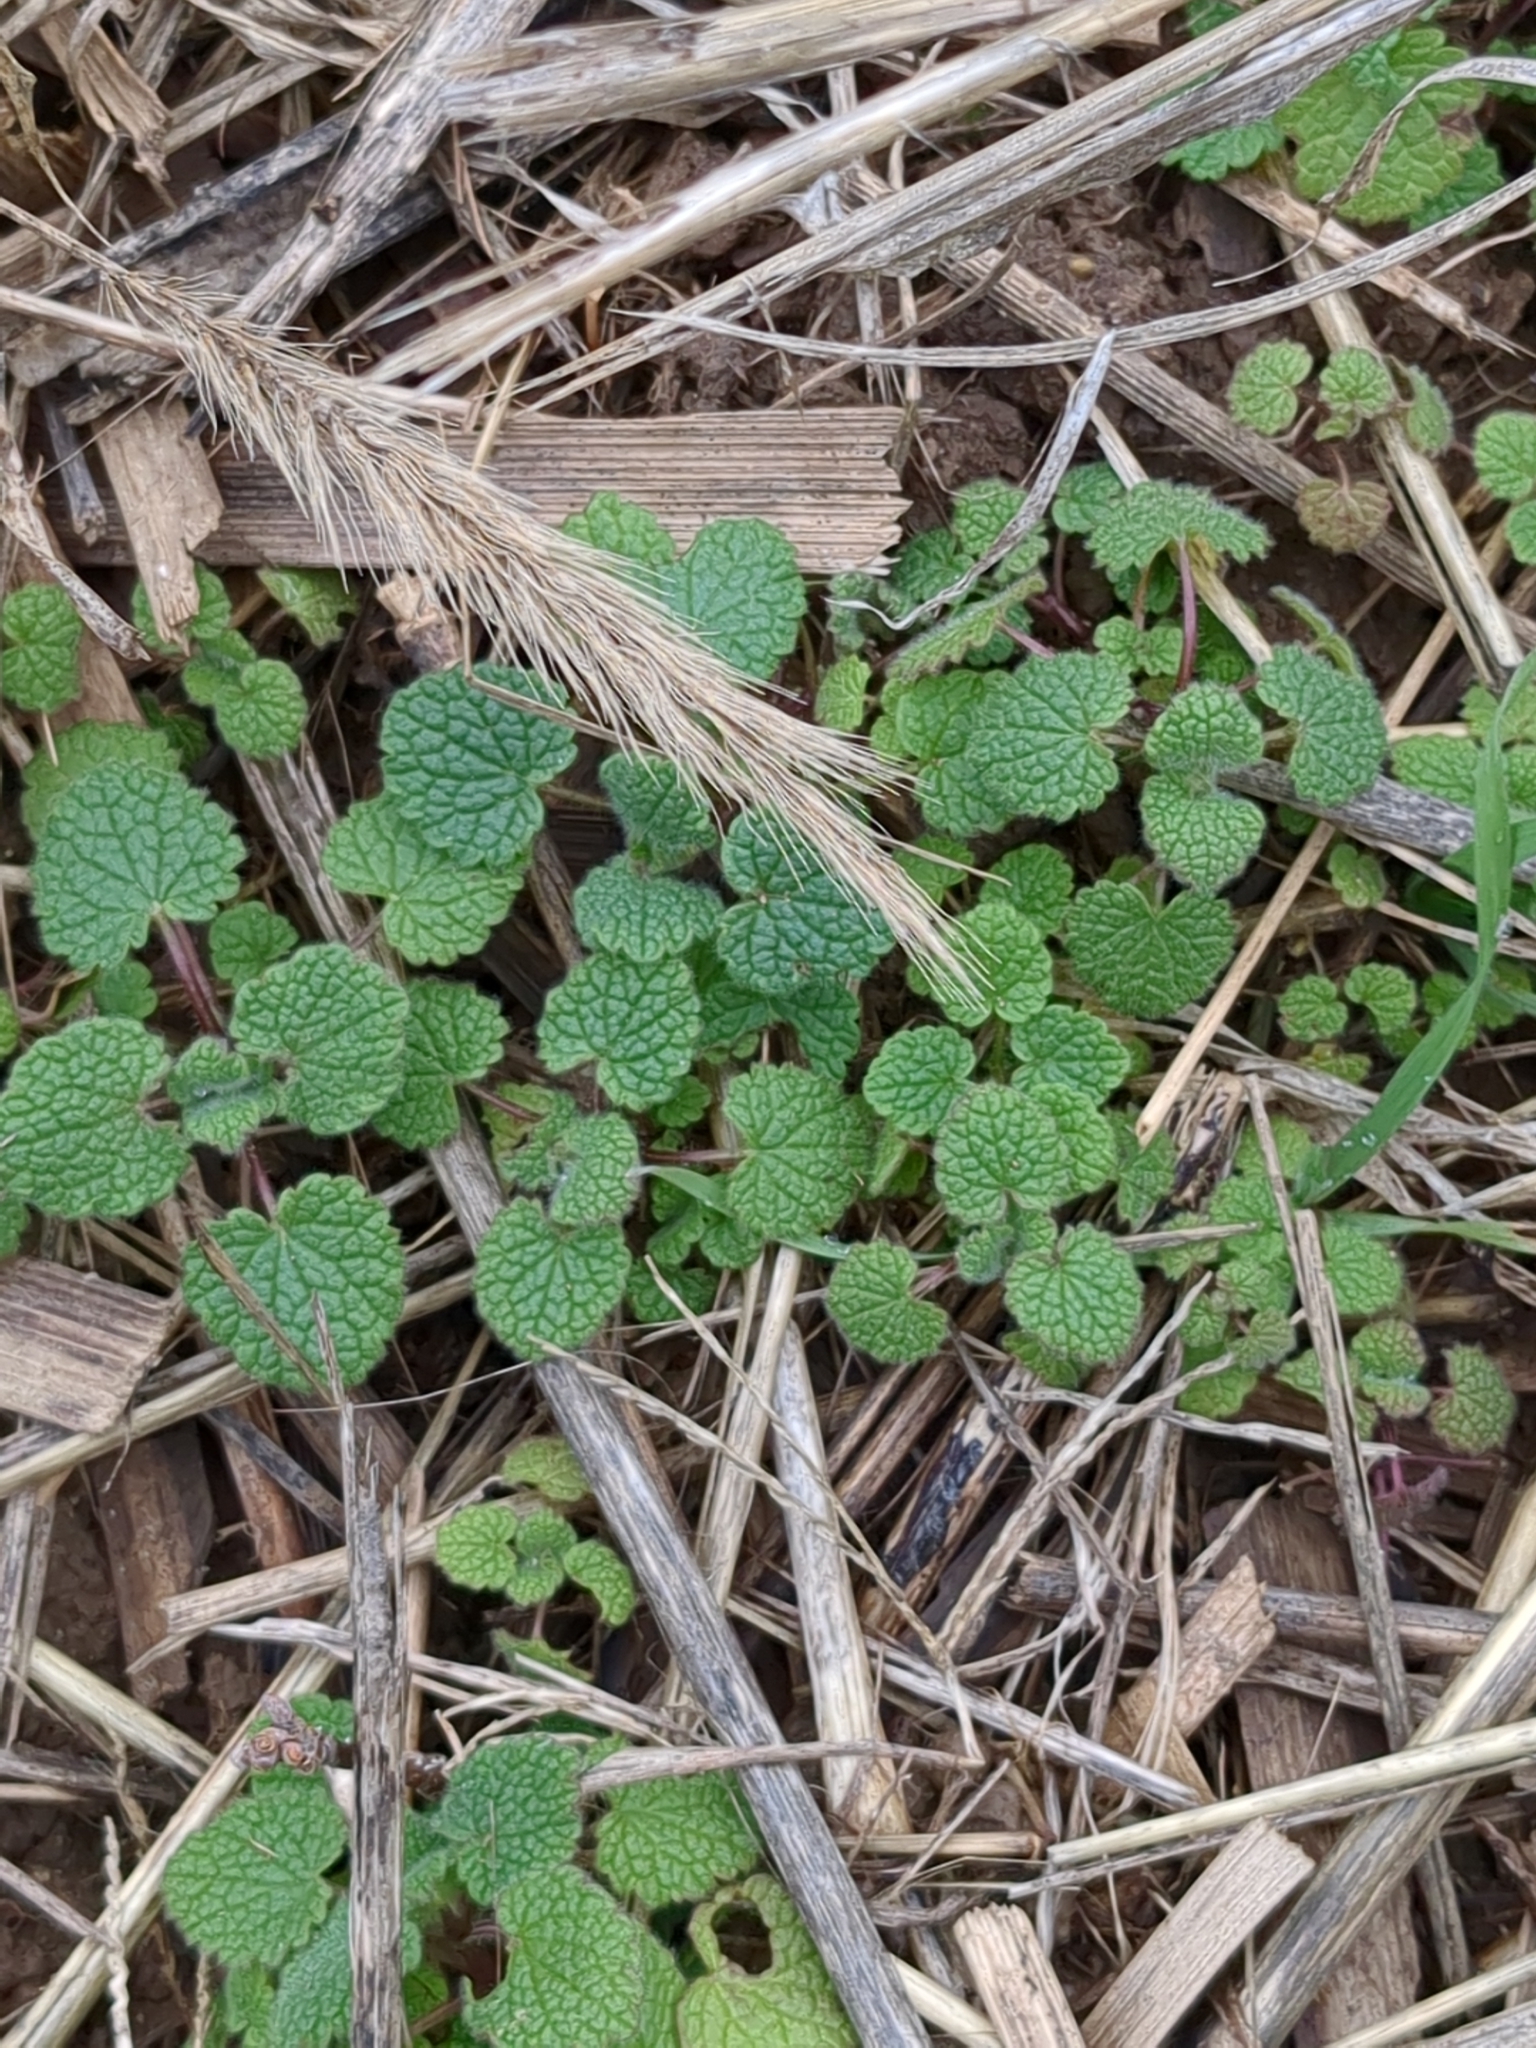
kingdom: Plantae
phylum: Tracheophyta
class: Magnoliopsida
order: Lamiales
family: Lamiaceae
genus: Lamium
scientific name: Lamium purpureum
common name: Red dead-nettle
